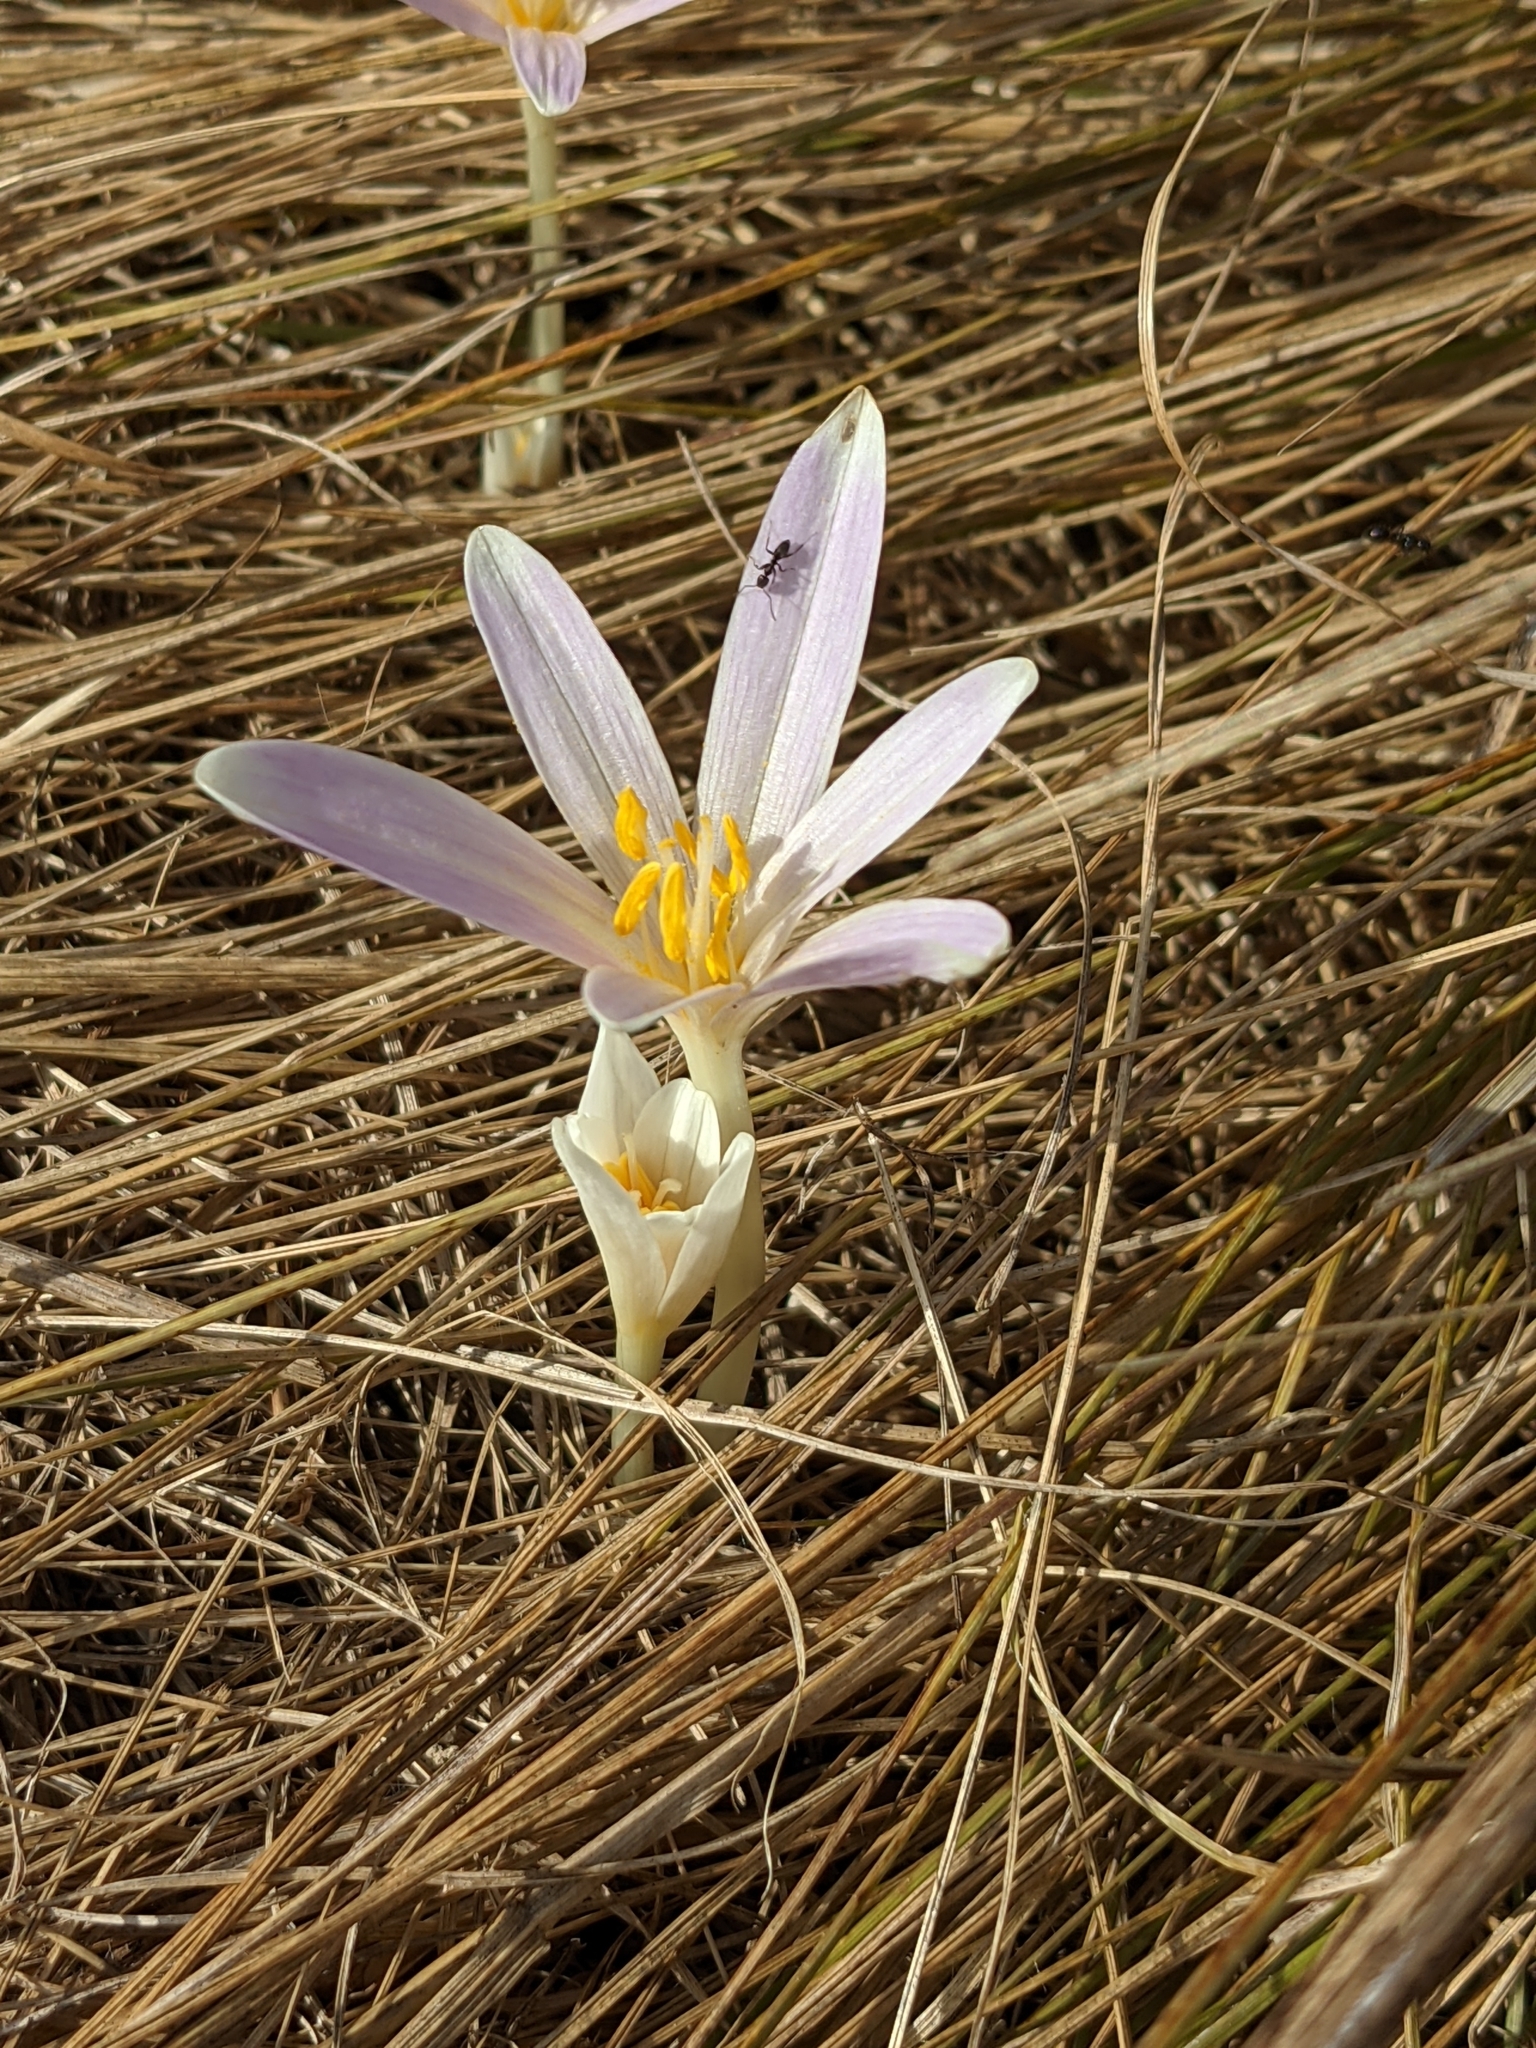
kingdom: Plantae
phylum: Tracheophyta
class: Liliopsida
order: Liliales
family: Colchicaceae
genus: Colchicum
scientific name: Colchicum longifolium
